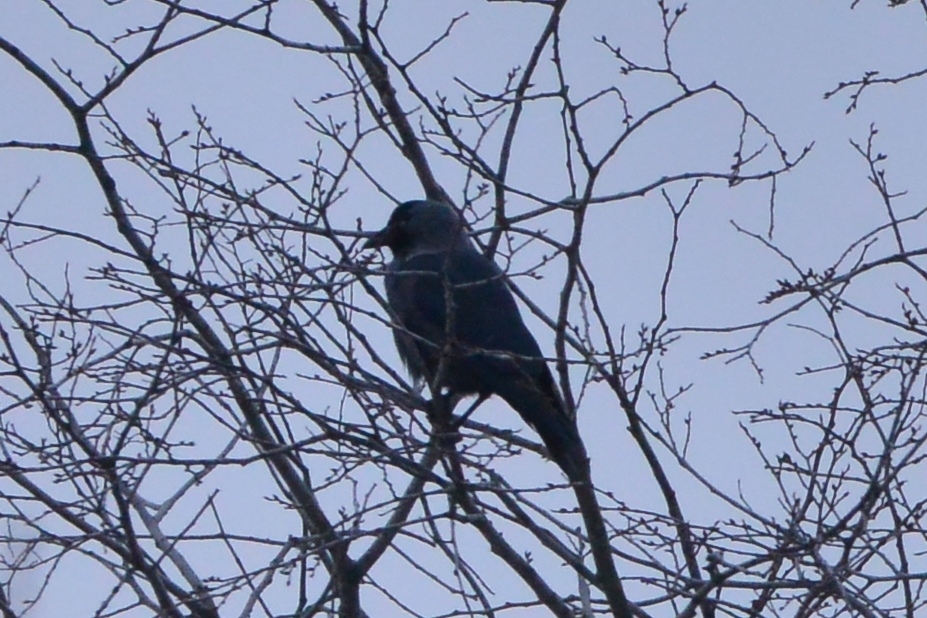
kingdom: Animalia
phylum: Chordata
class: Aves
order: Passeriformes
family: Corvidae
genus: Coloeus
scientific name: Coloeus monedula
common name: Western jackdaw
